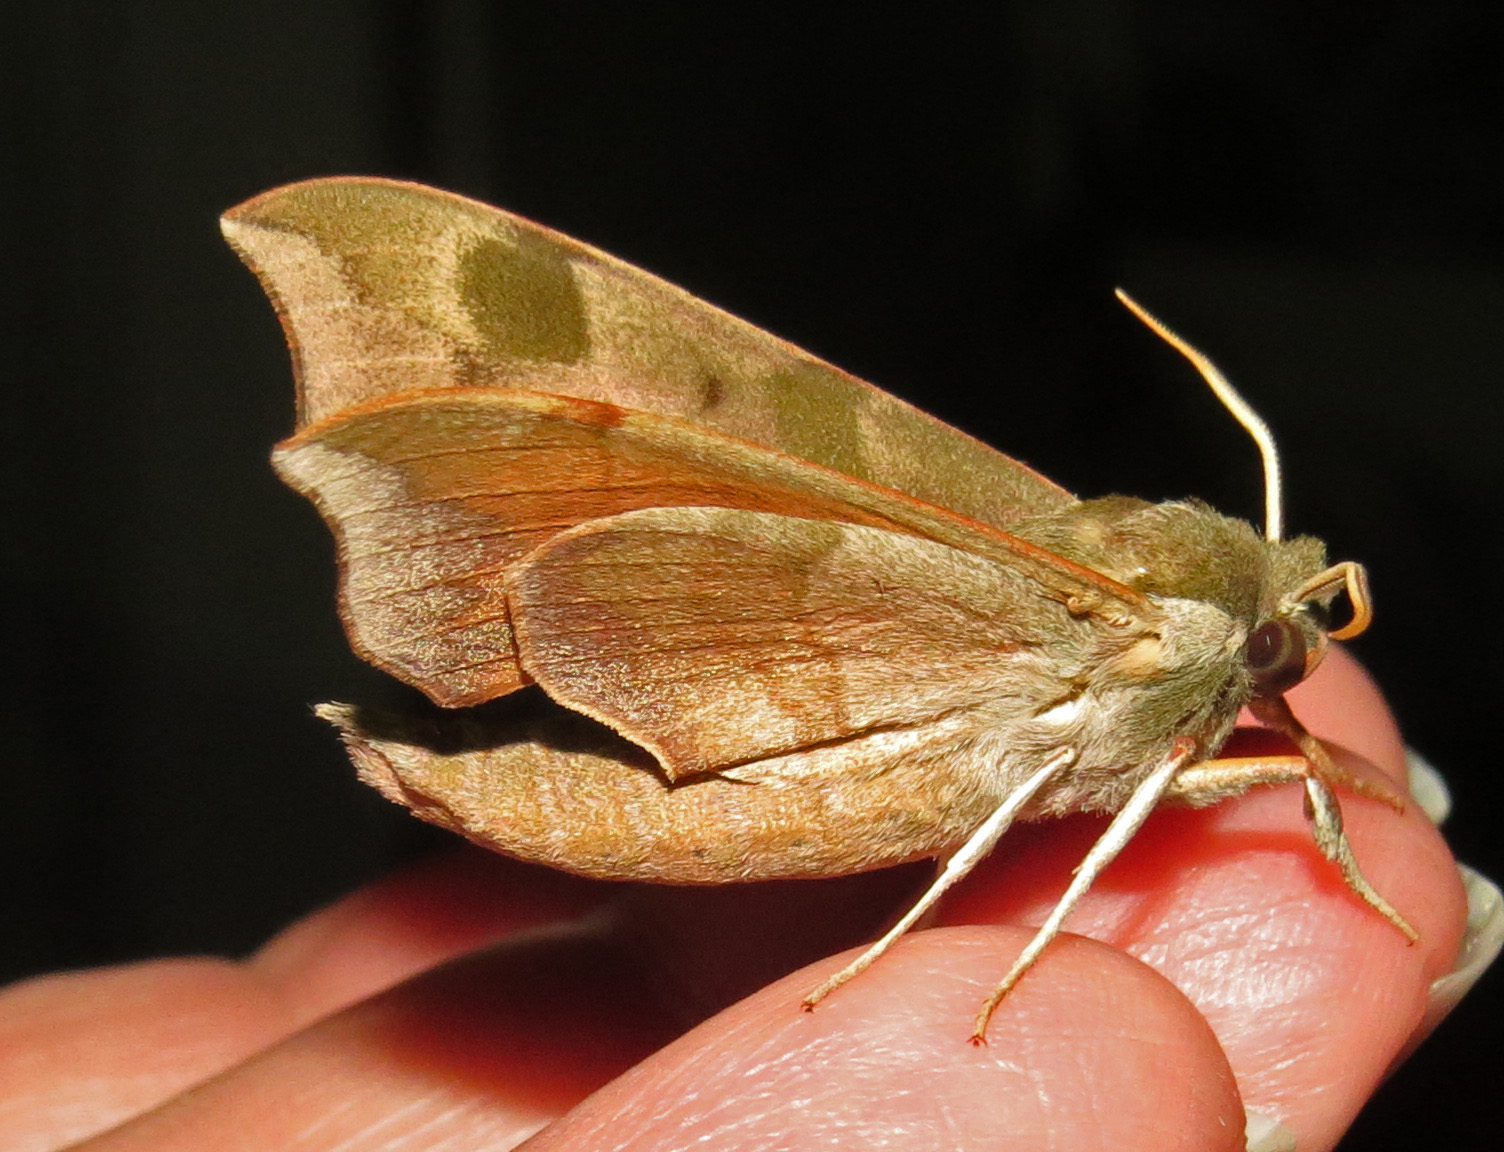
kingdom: Animalia
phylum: Arthropoda
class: Insecta
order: Lepidoptera
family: Sphingidae
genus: Darapsa
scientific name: Darapsa myron
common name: Hog sphinx
